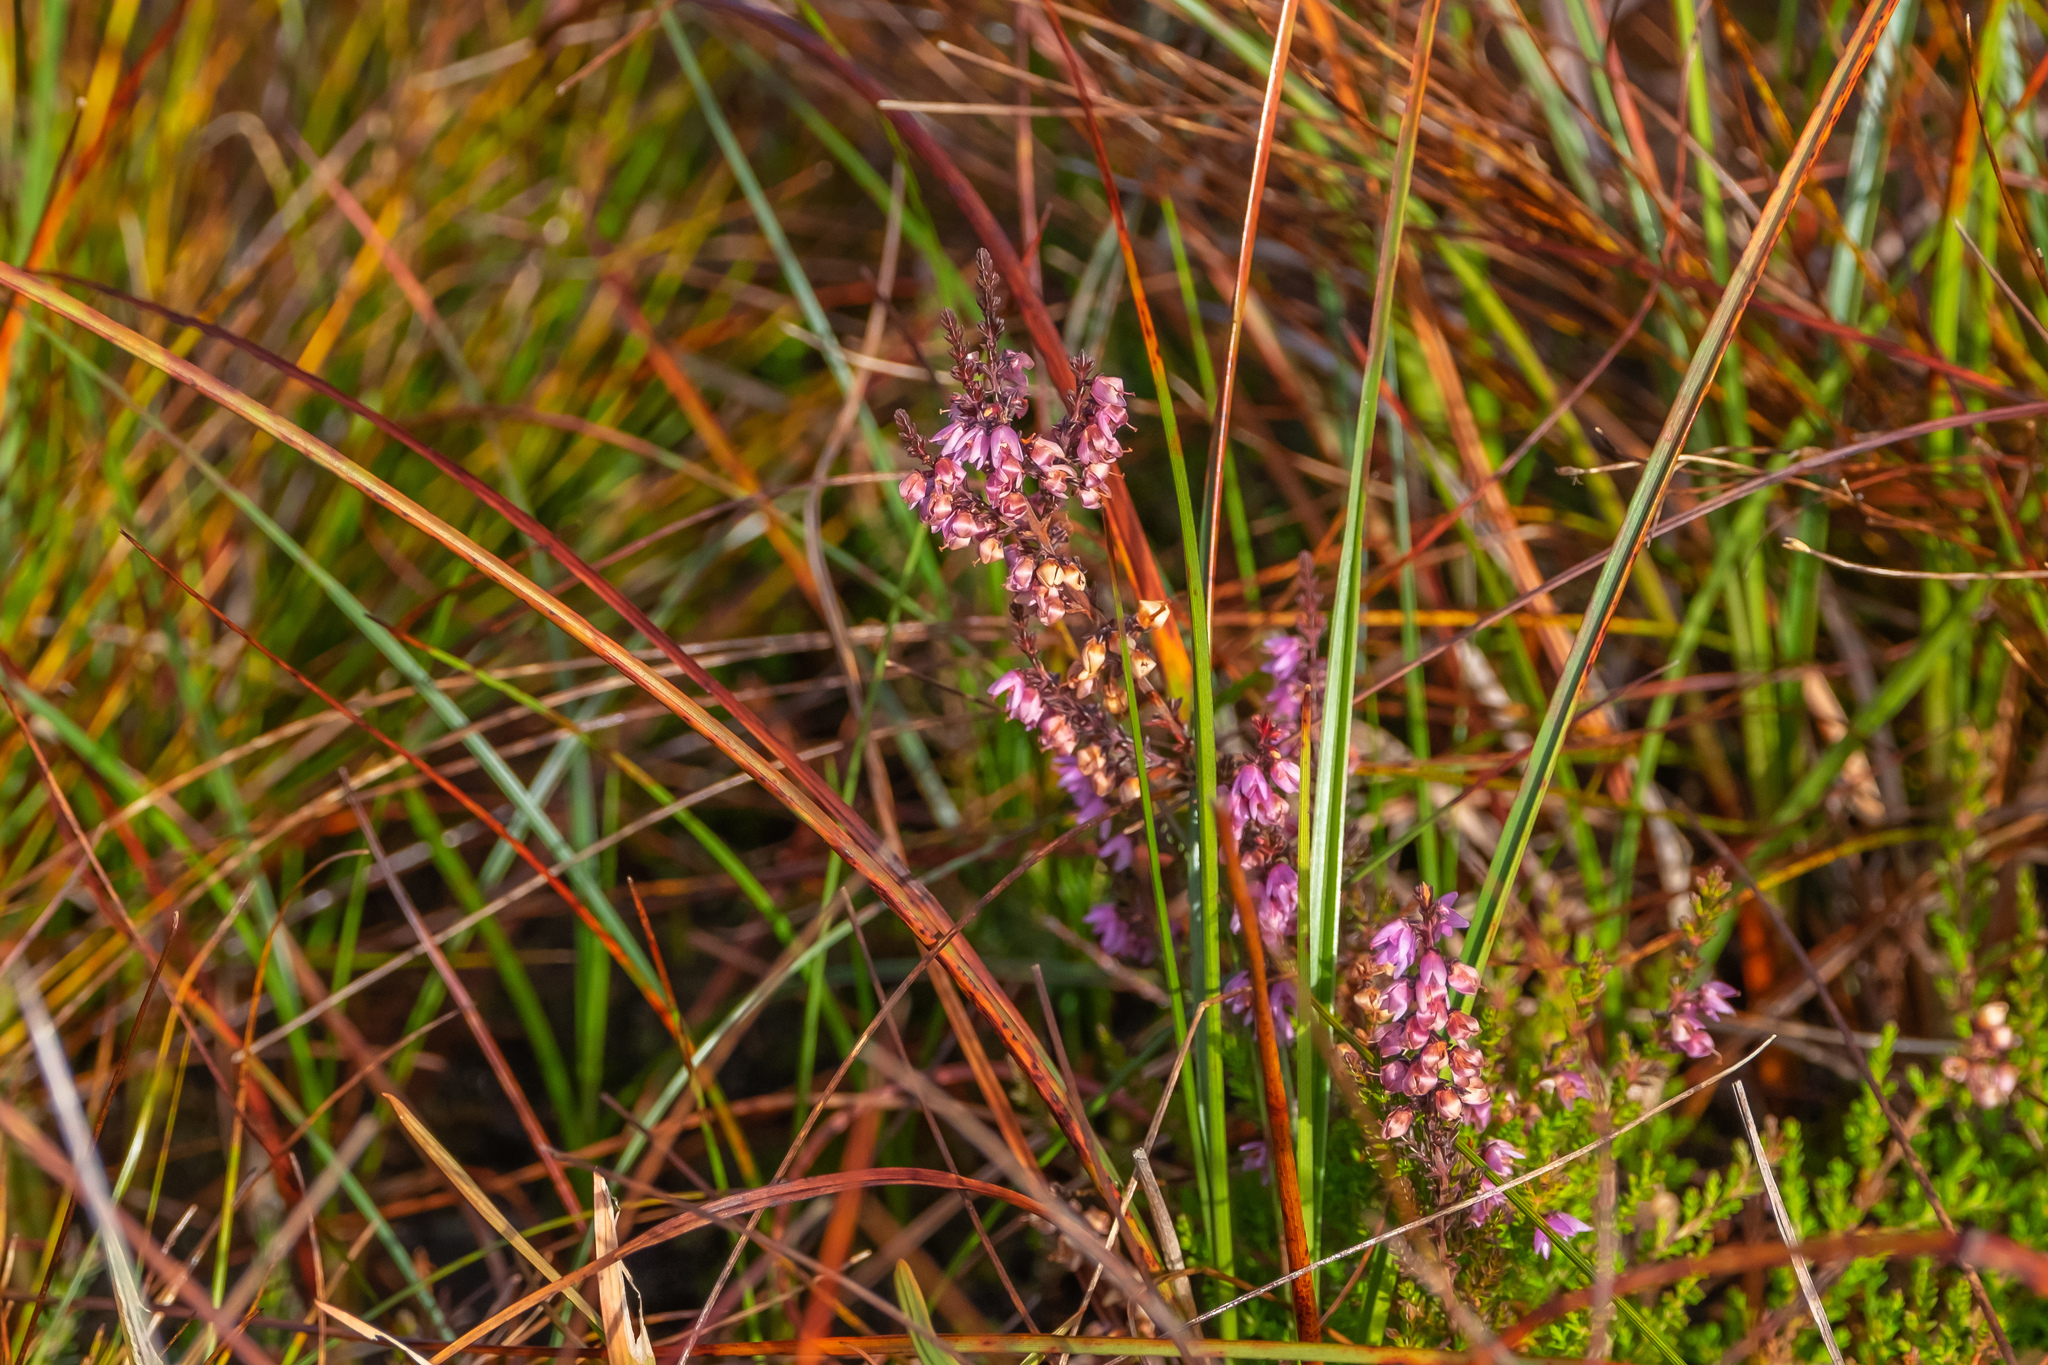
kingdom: Plantae
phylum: Tracheophyta
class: Magnoliopsida
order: Ericales
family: Ericaceae
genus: Calluna
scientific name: Calluna vulgaris
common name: Heather
